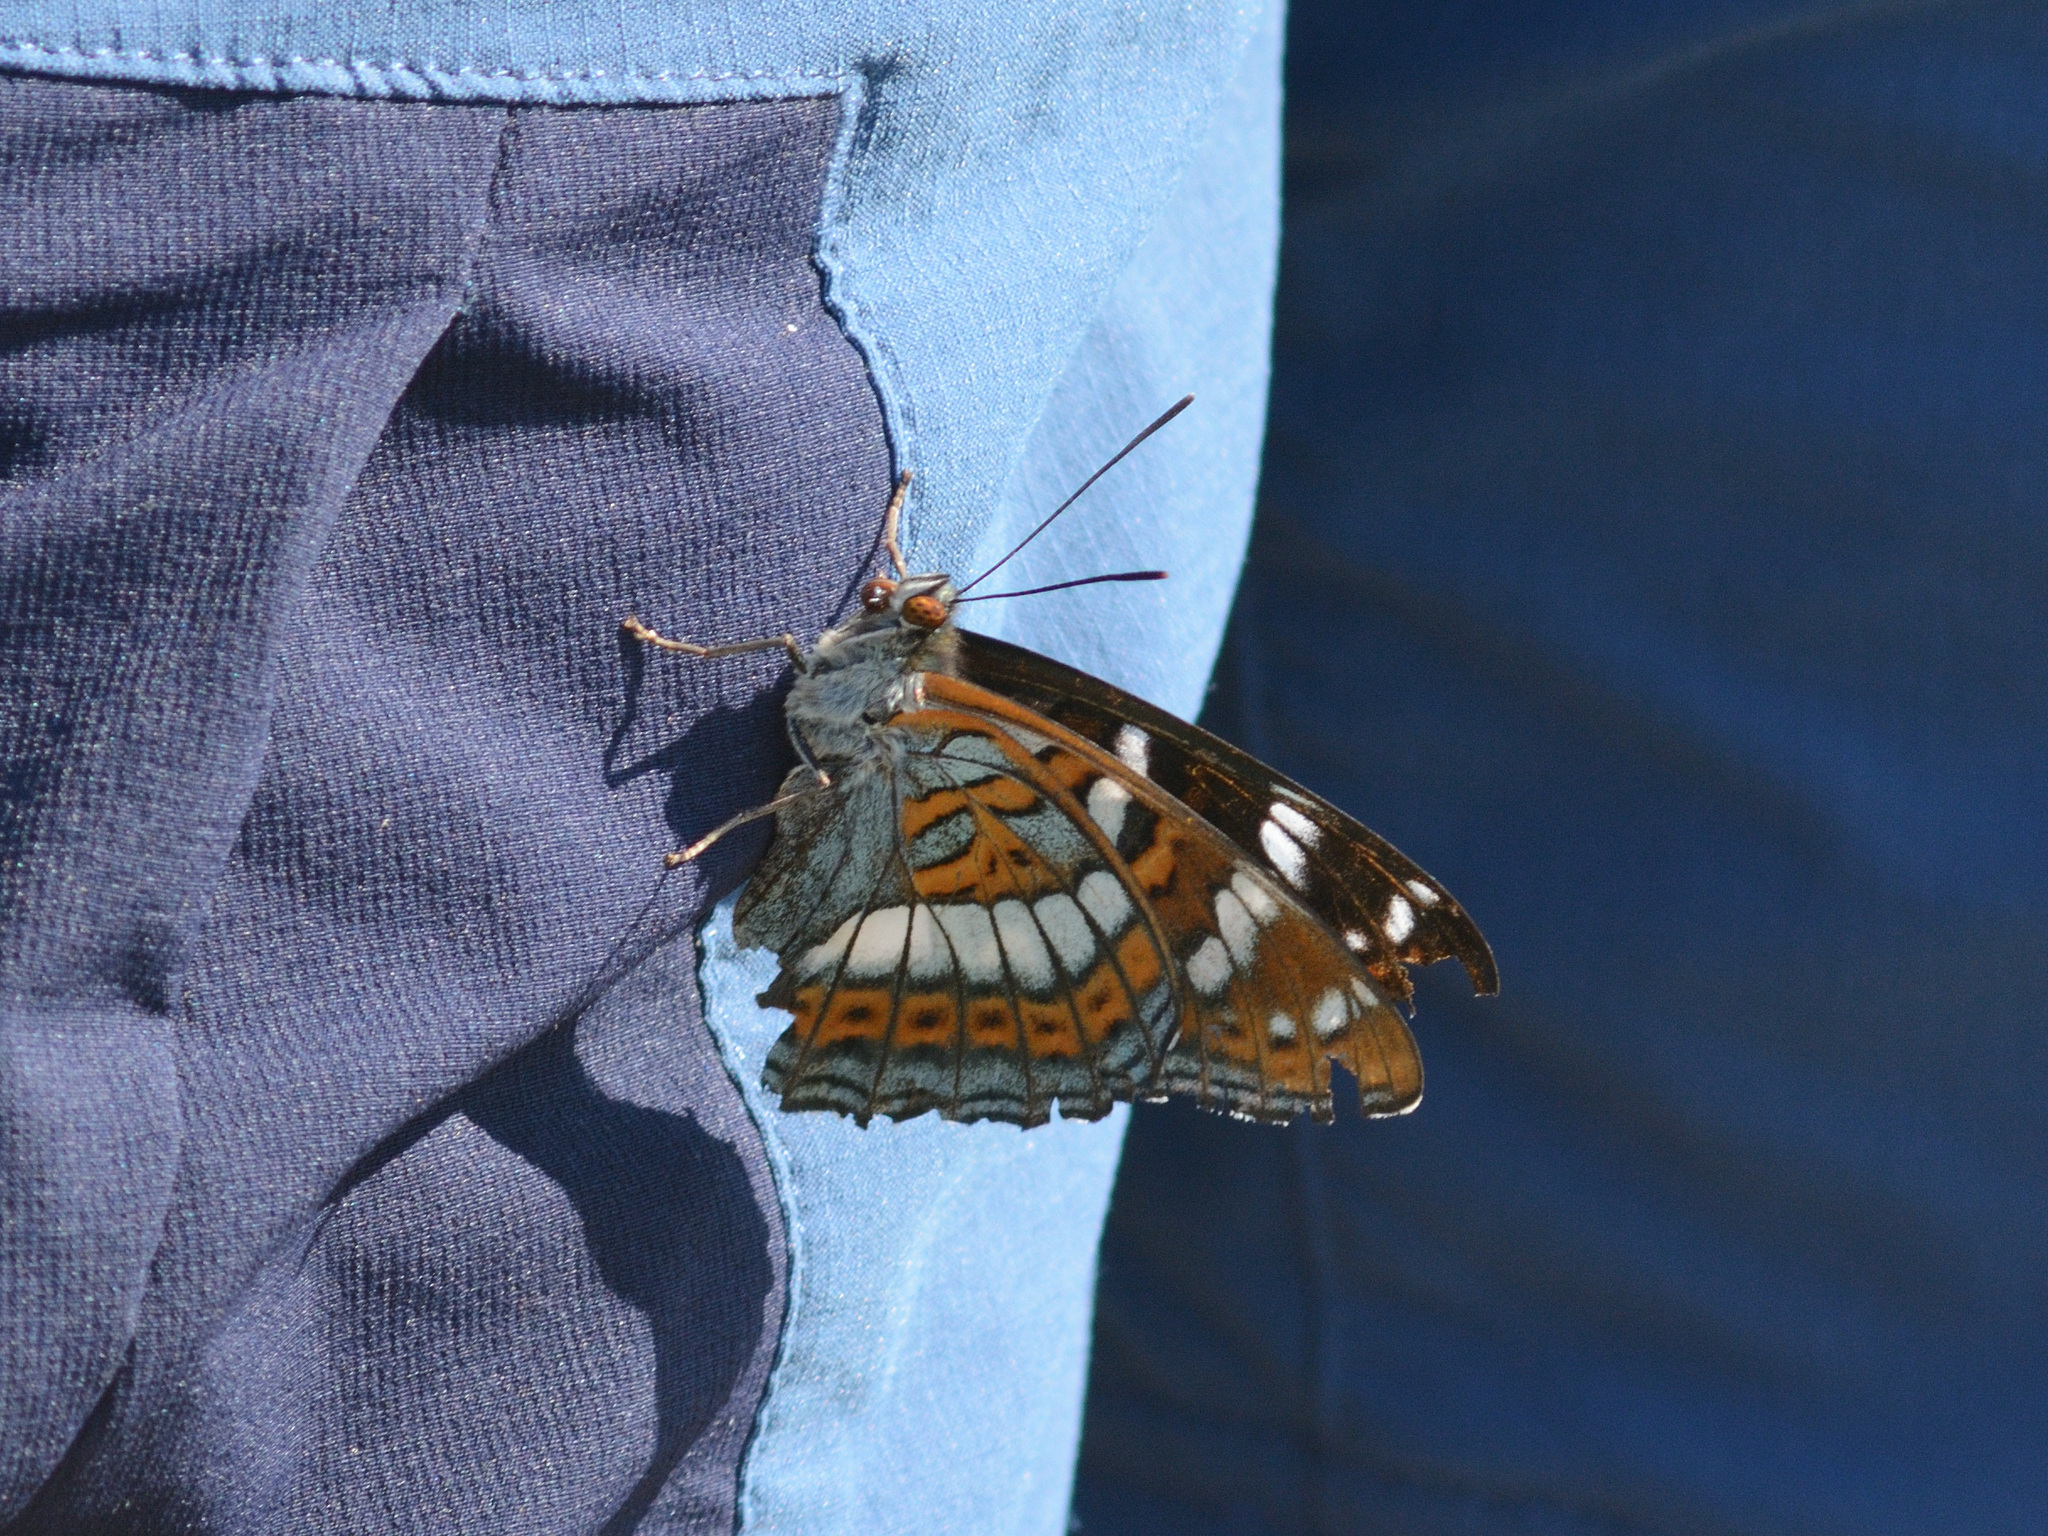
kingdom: Animalia
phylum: Arthropoda
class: Insecta
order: Lepidoptera
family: Nymphalidae
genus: Limenitis
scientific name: Limenitis populi
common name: Poplar admiral
